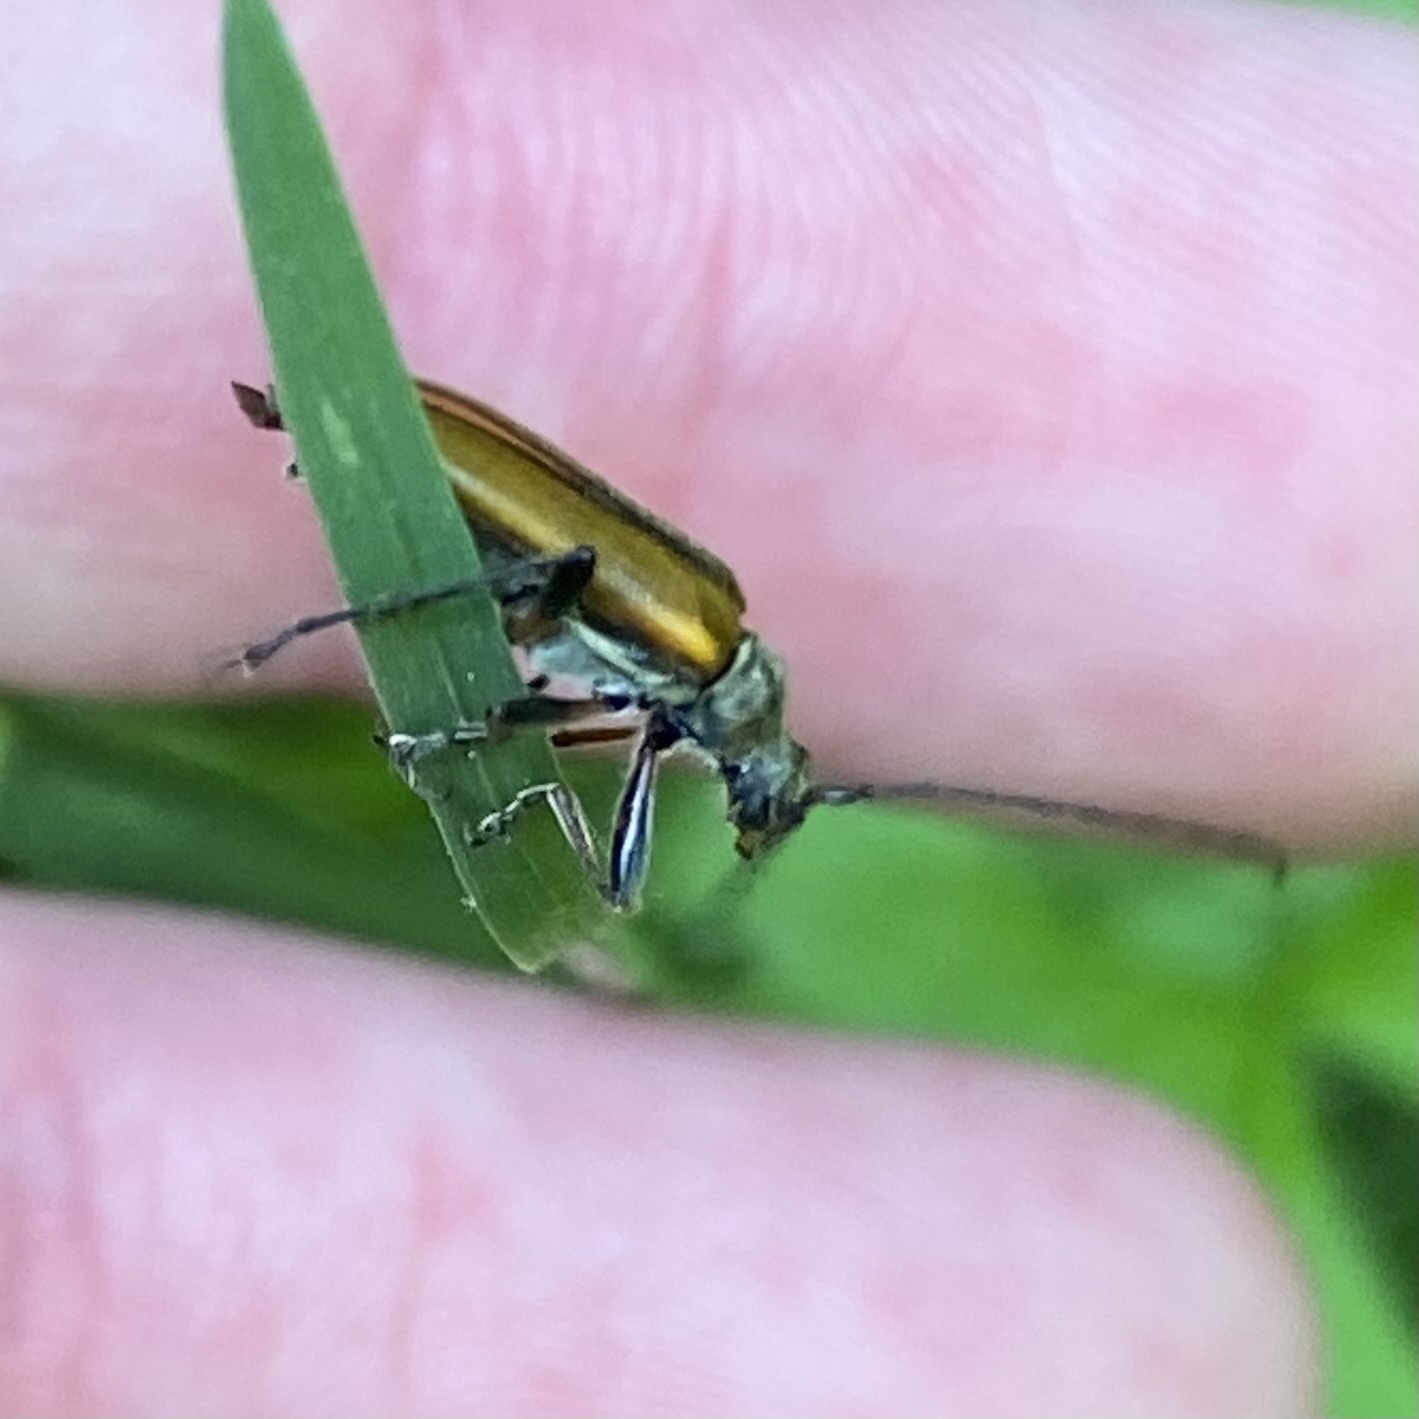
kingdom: Animalia
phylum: Arthropoda
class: Insecta
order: Coleoptera
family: Cerambycidae
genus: Cortodera
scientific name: Cortodera humeralis
